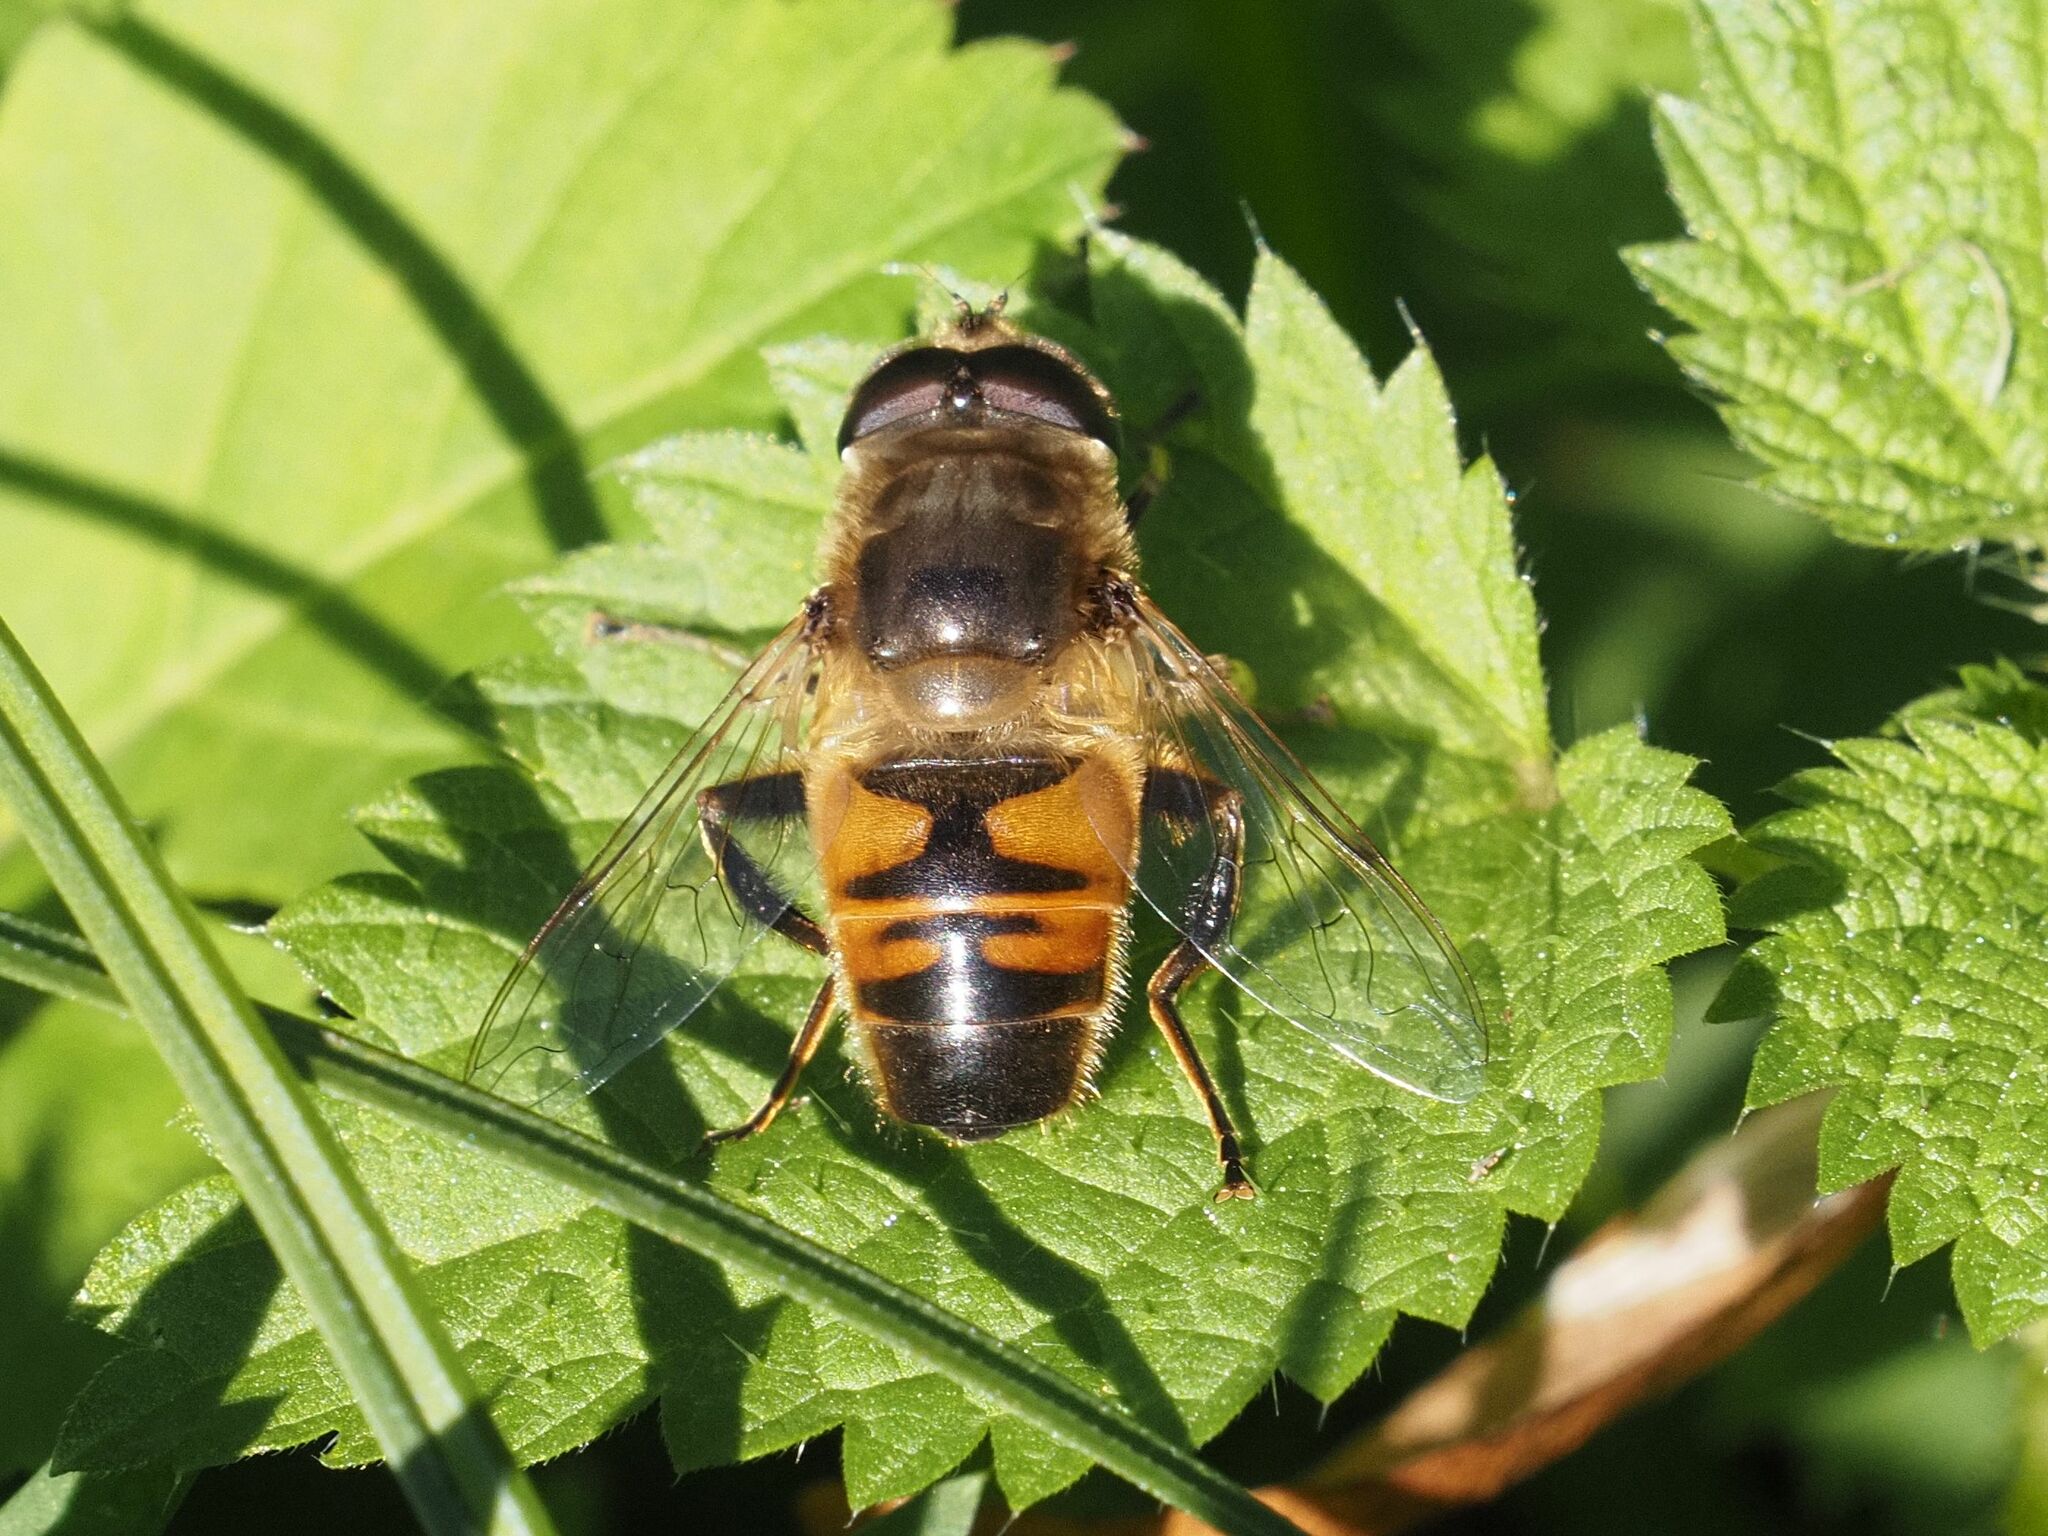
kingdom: Animalia
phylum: Arthropoda
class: Insecta
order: Diptera
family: Syrphidae
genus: Eristalis
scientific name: Eristalis tenax
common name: Drone fly
